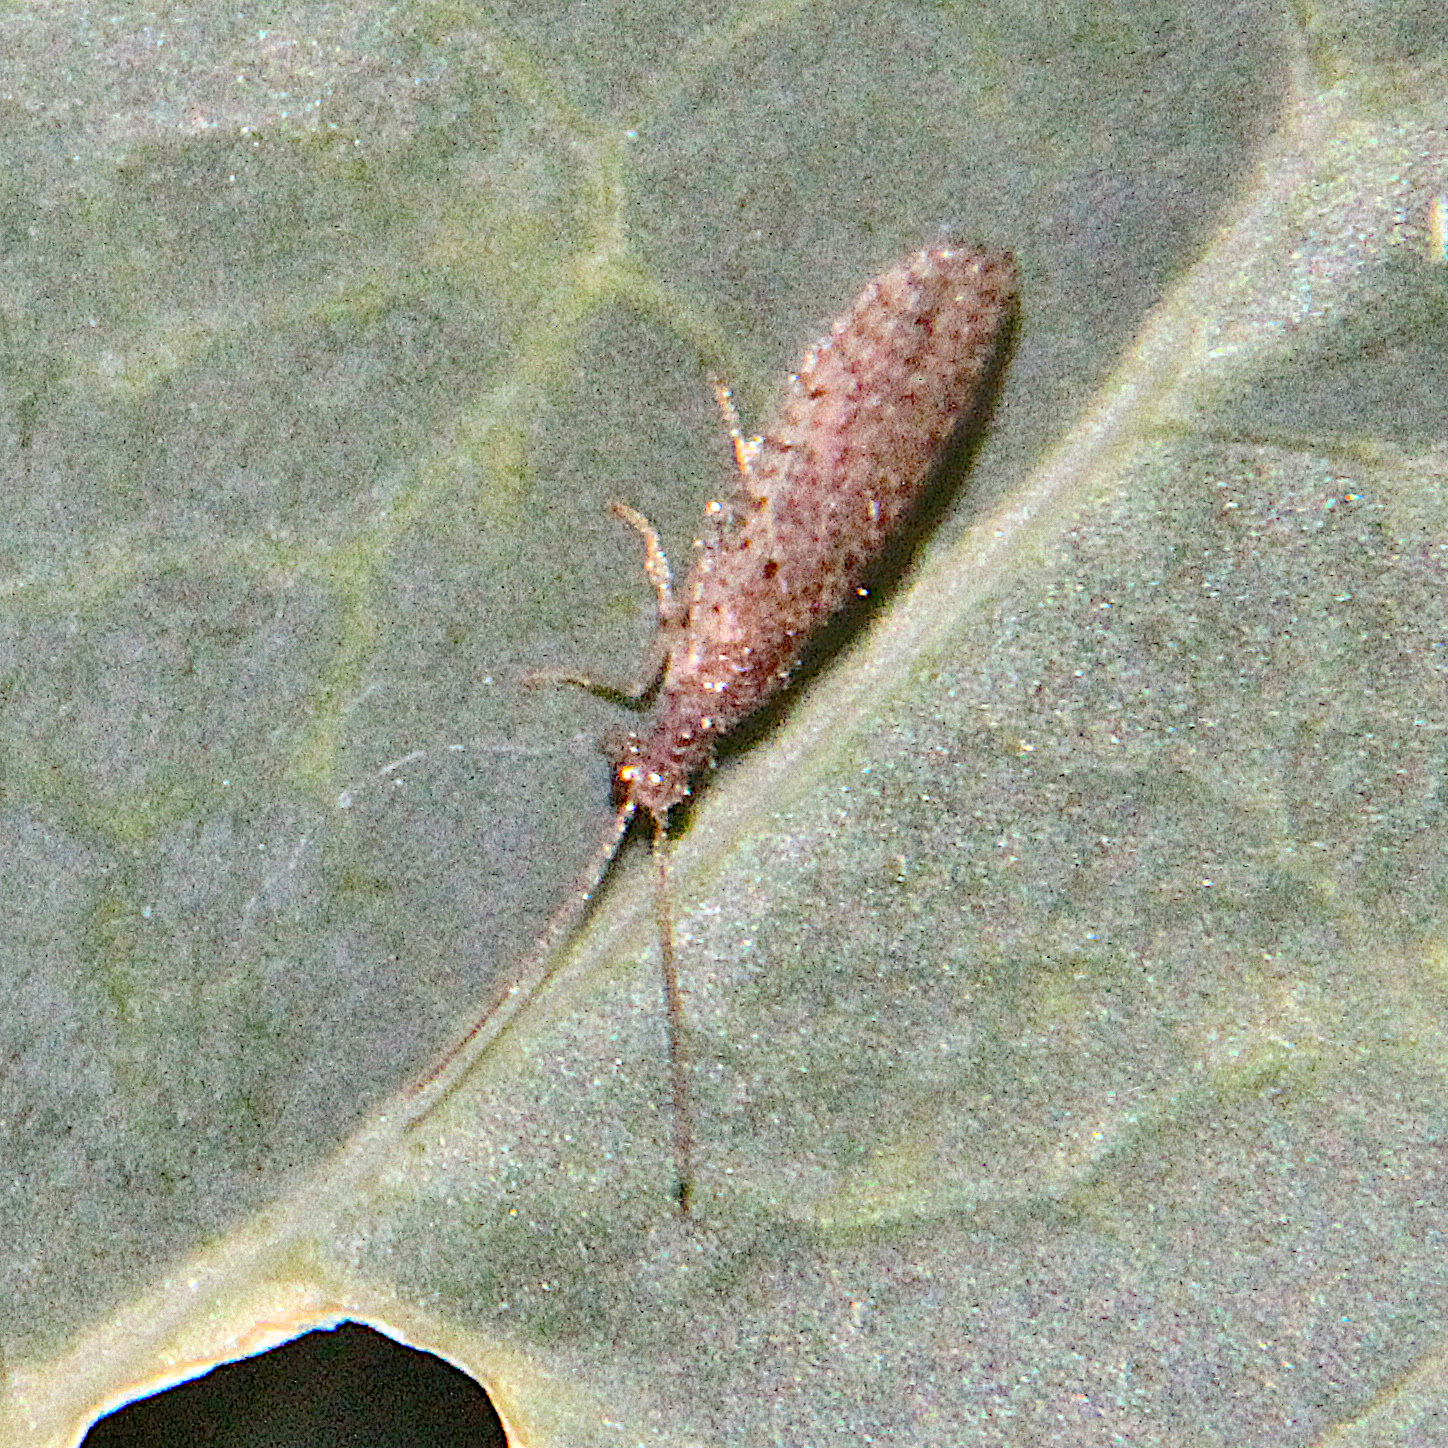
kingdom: Animalia
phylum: Arthropoda
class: Insecta
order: Neuroptera
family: Hemerobiidae
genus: Micromus
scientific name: Micromus tasmaniae
